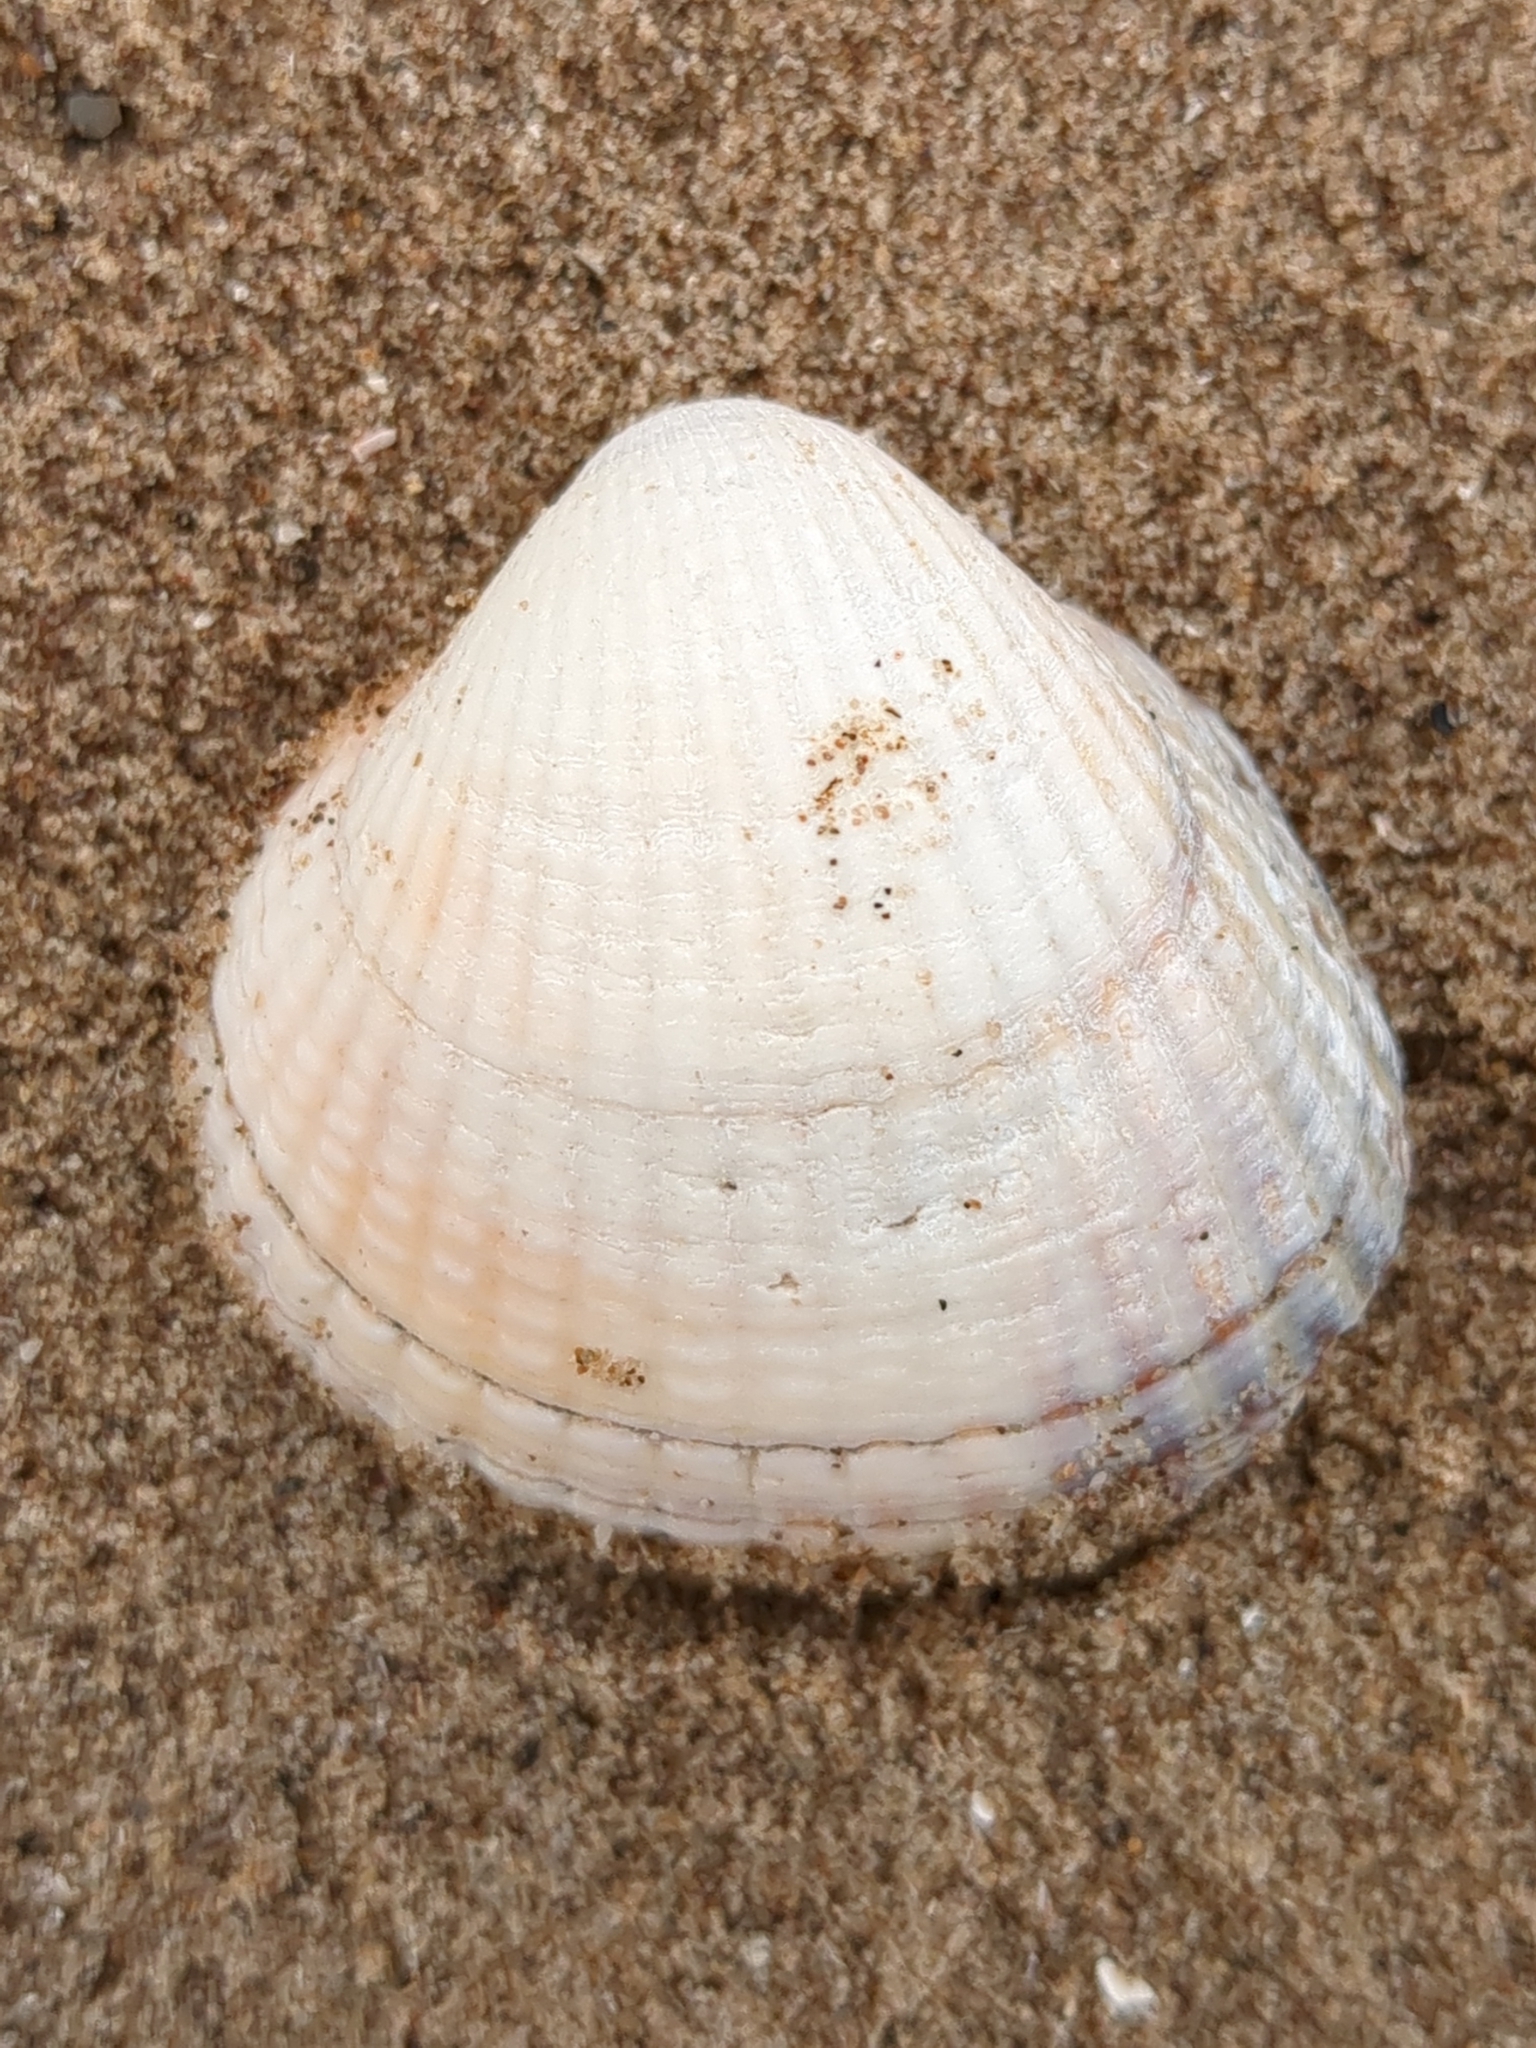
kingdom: Animalia
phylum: Mollusca
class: Bivalvia
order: Cardiida
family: Cardiidae
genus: Cerastoderma
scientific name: Cerastoderma edule
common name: Common cockle
